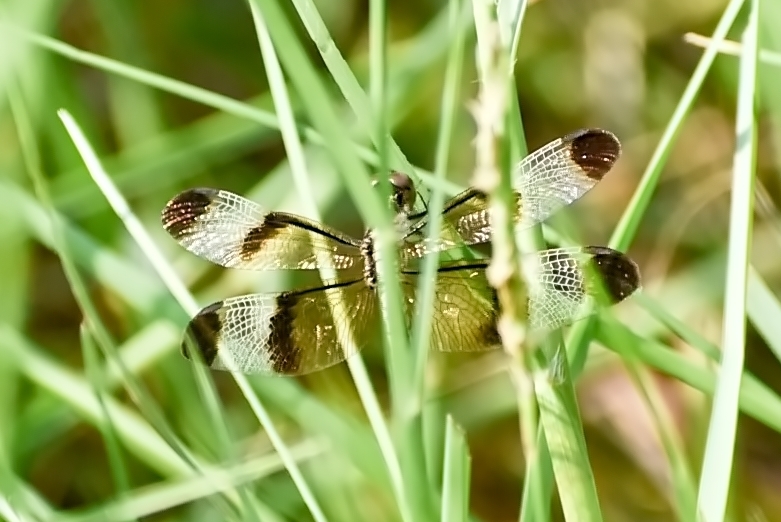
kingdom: Animalia
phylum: Arthropoda
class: Insecta
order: Odonata
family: Libellulidae
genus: Neurothemis
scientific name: Neurothemis tullia
